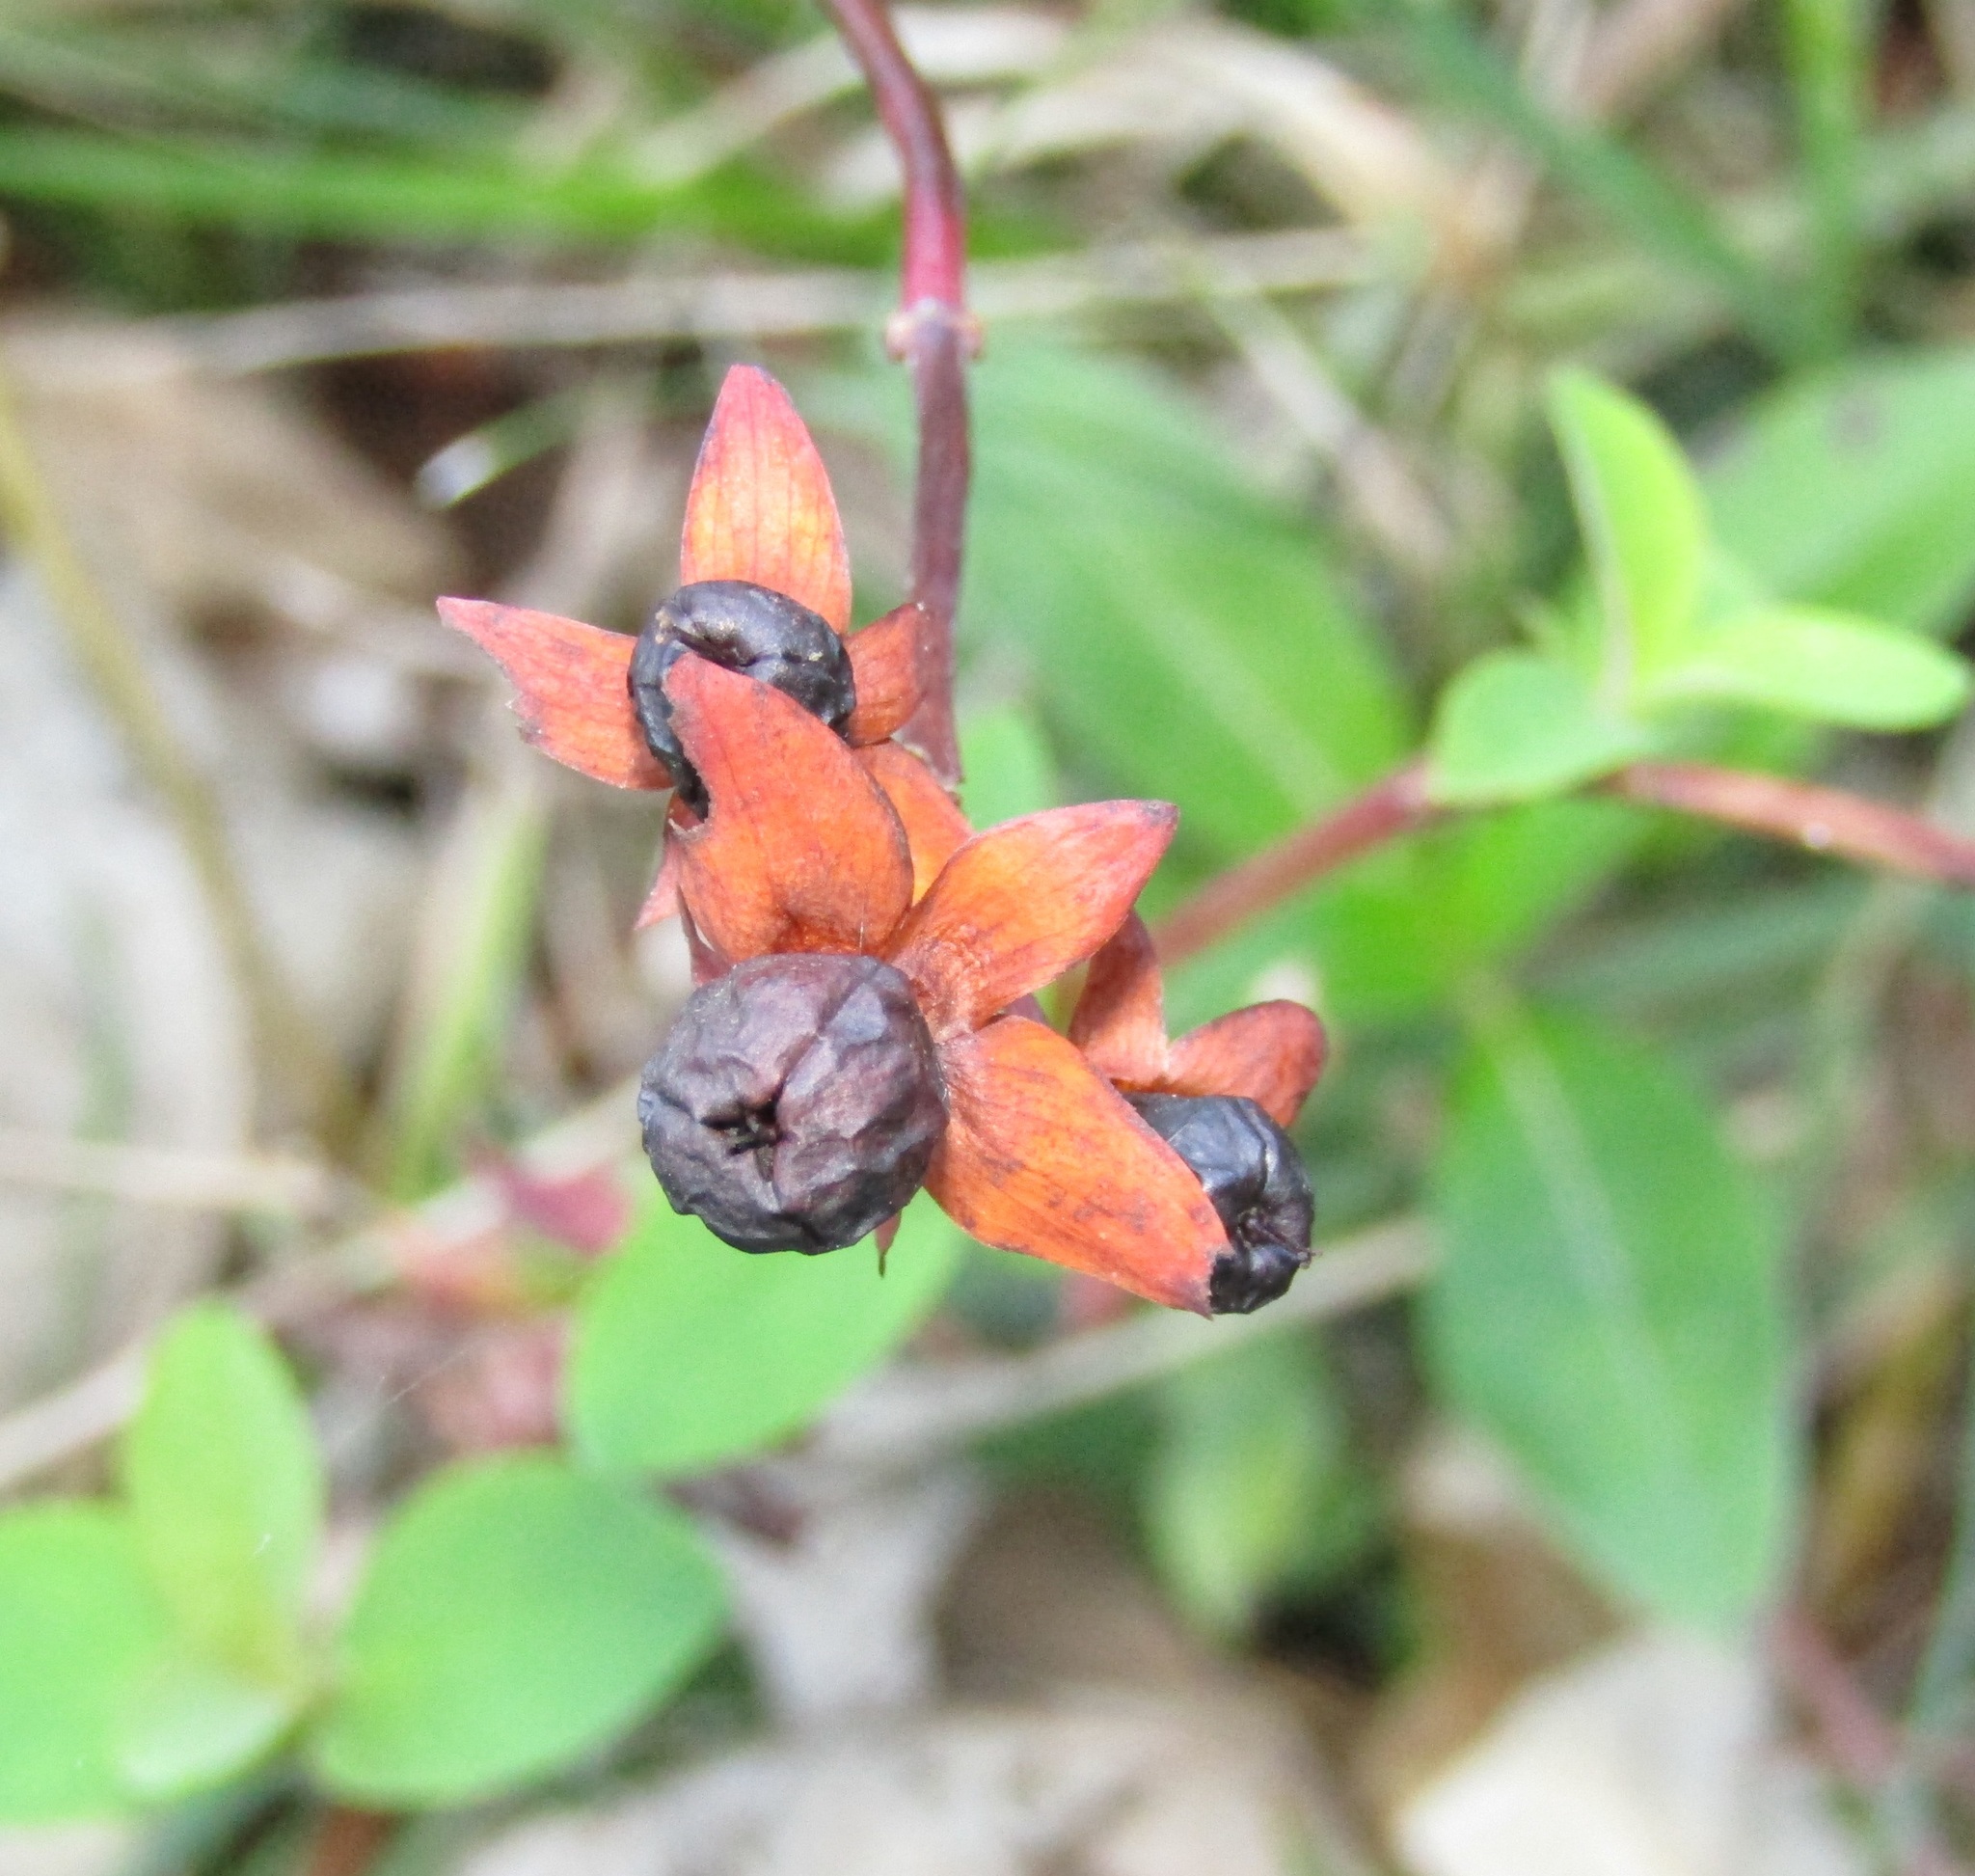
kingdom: Plantae
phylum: Tracheophyta
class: Magnoliopsida
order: Malpighiales
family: Hypericaceae
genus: Hypericum
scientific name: Hypericum androsaemum
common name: Sweet-amber
